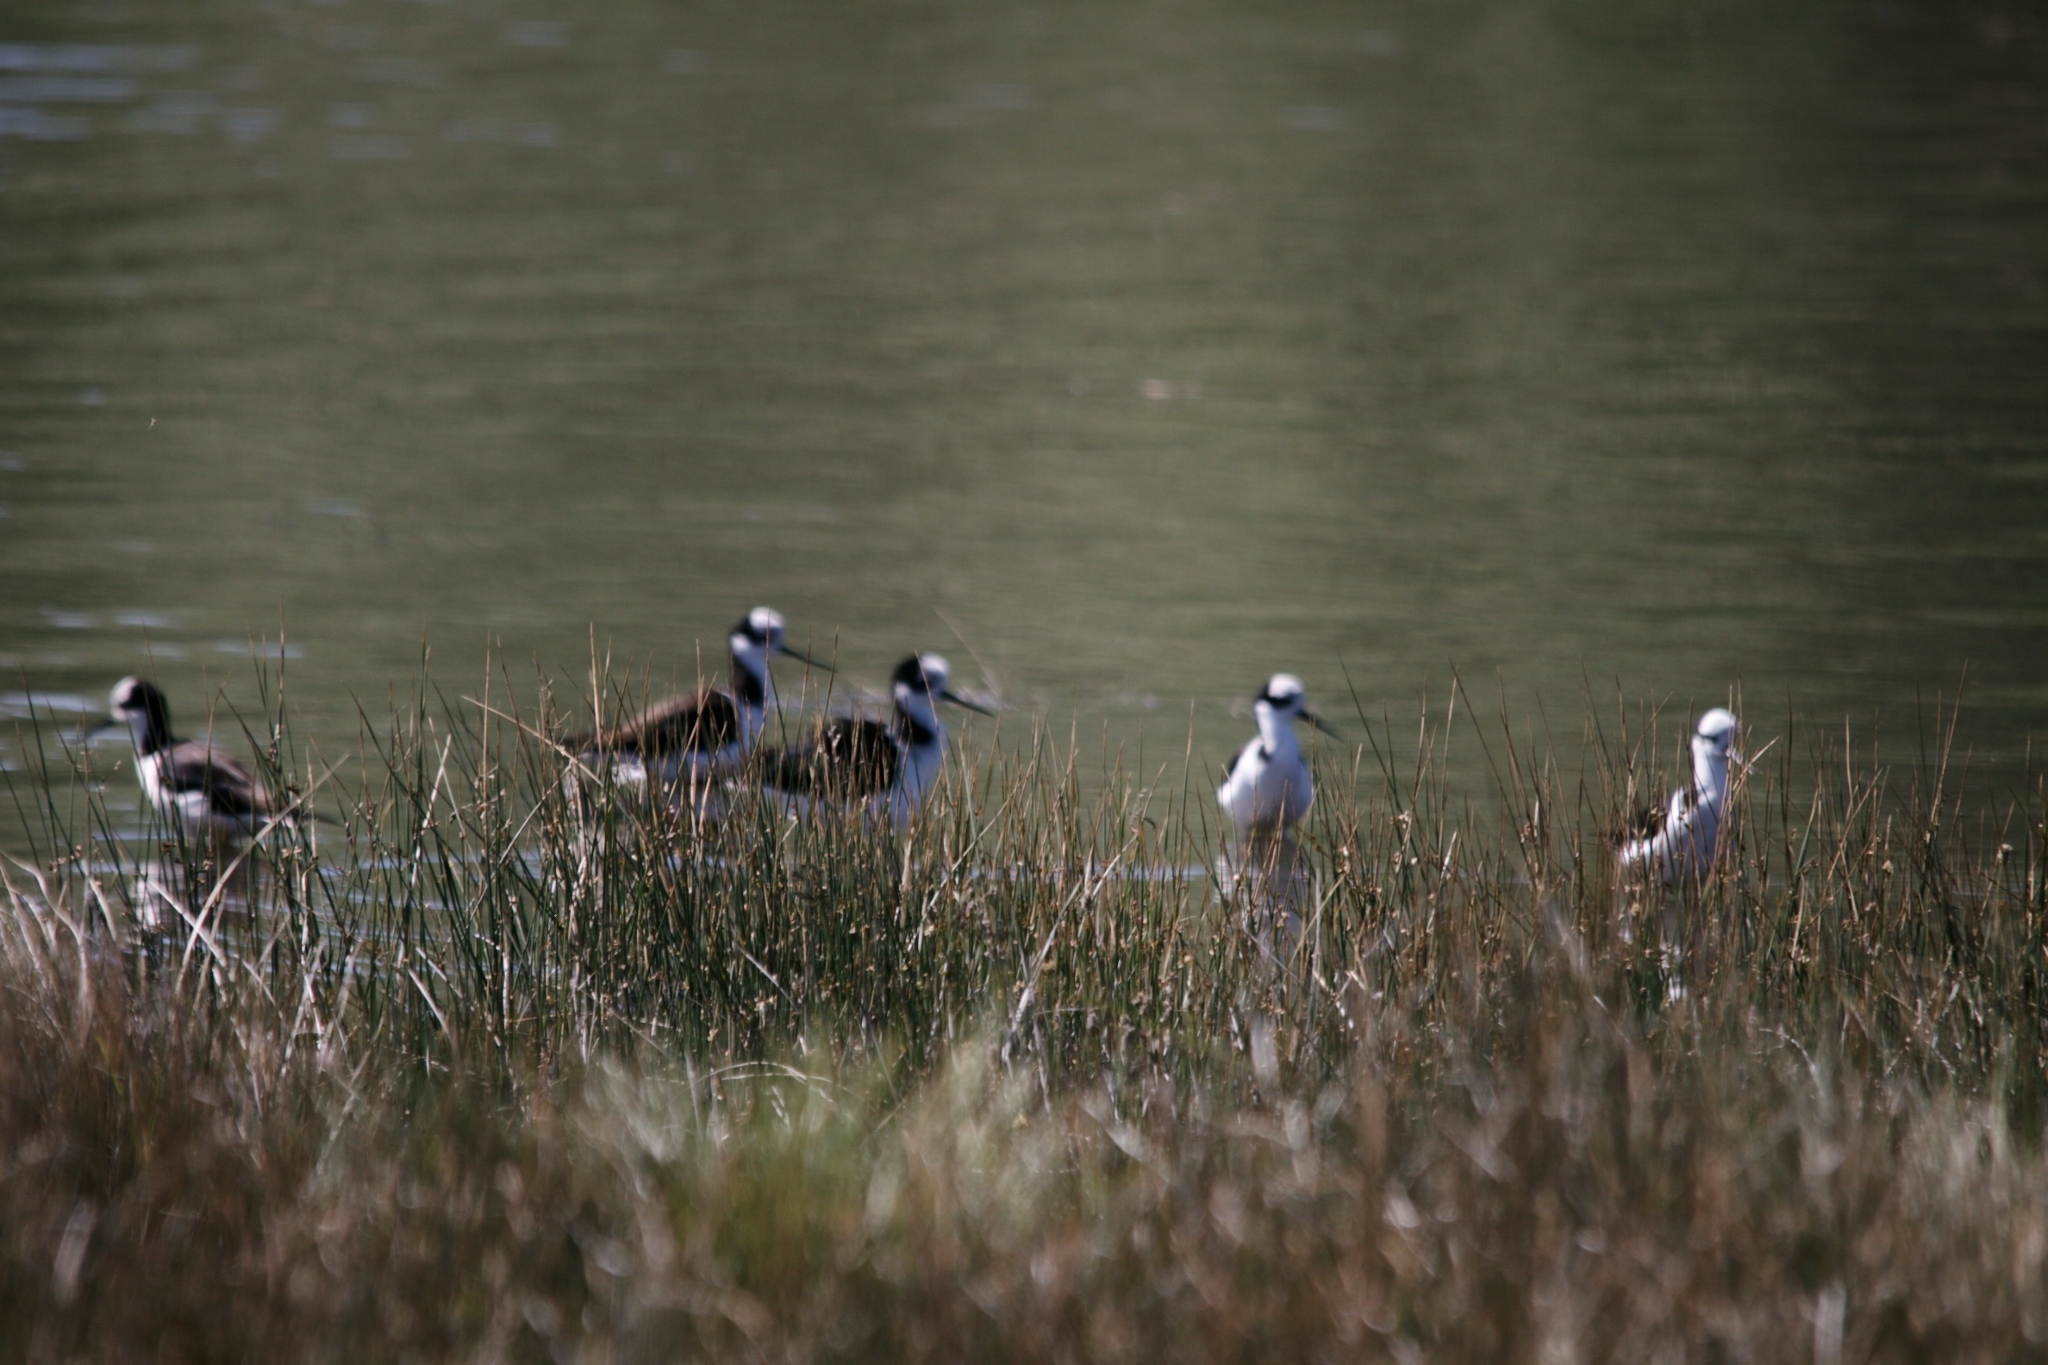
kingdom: Animalia
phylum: Chordata
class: Aves
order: Charadriiformes
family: Recurvirostridae
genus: Himantopus
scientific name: Himantopus mexicanus
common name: Black-necked stilt
